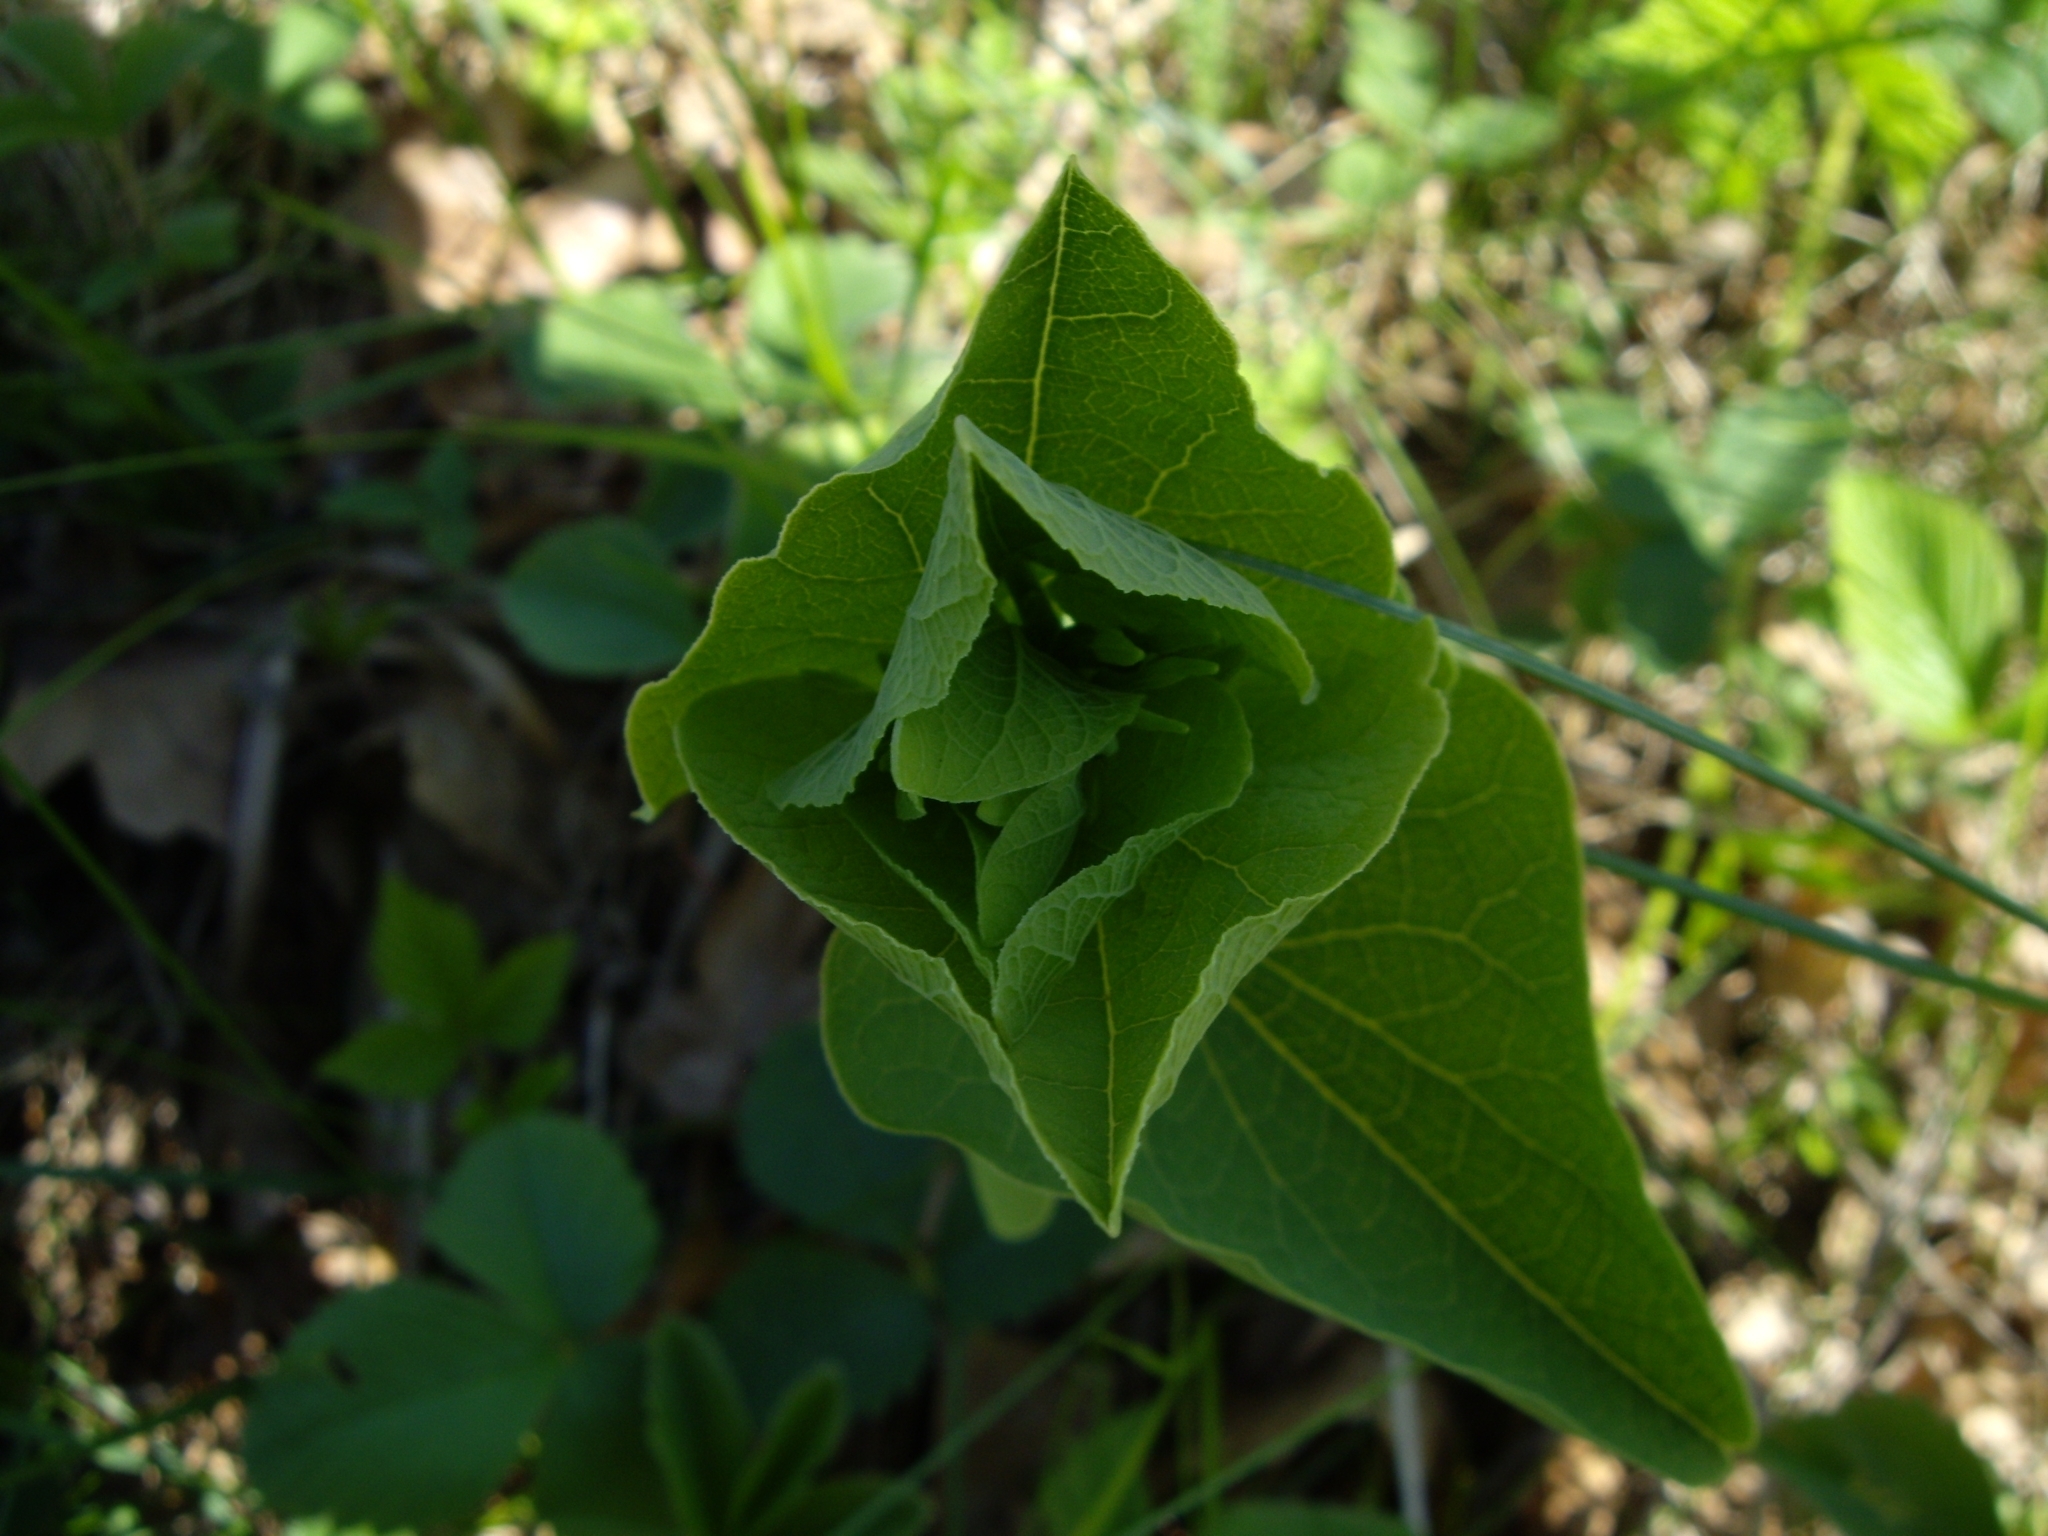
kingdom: Plantae
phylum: Tracheophyta
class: Magnoliopsida
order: Piperales
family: Aristolochiaceae
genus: Aristolochia
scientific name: Aristolochia clematitis
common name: Birthwort
